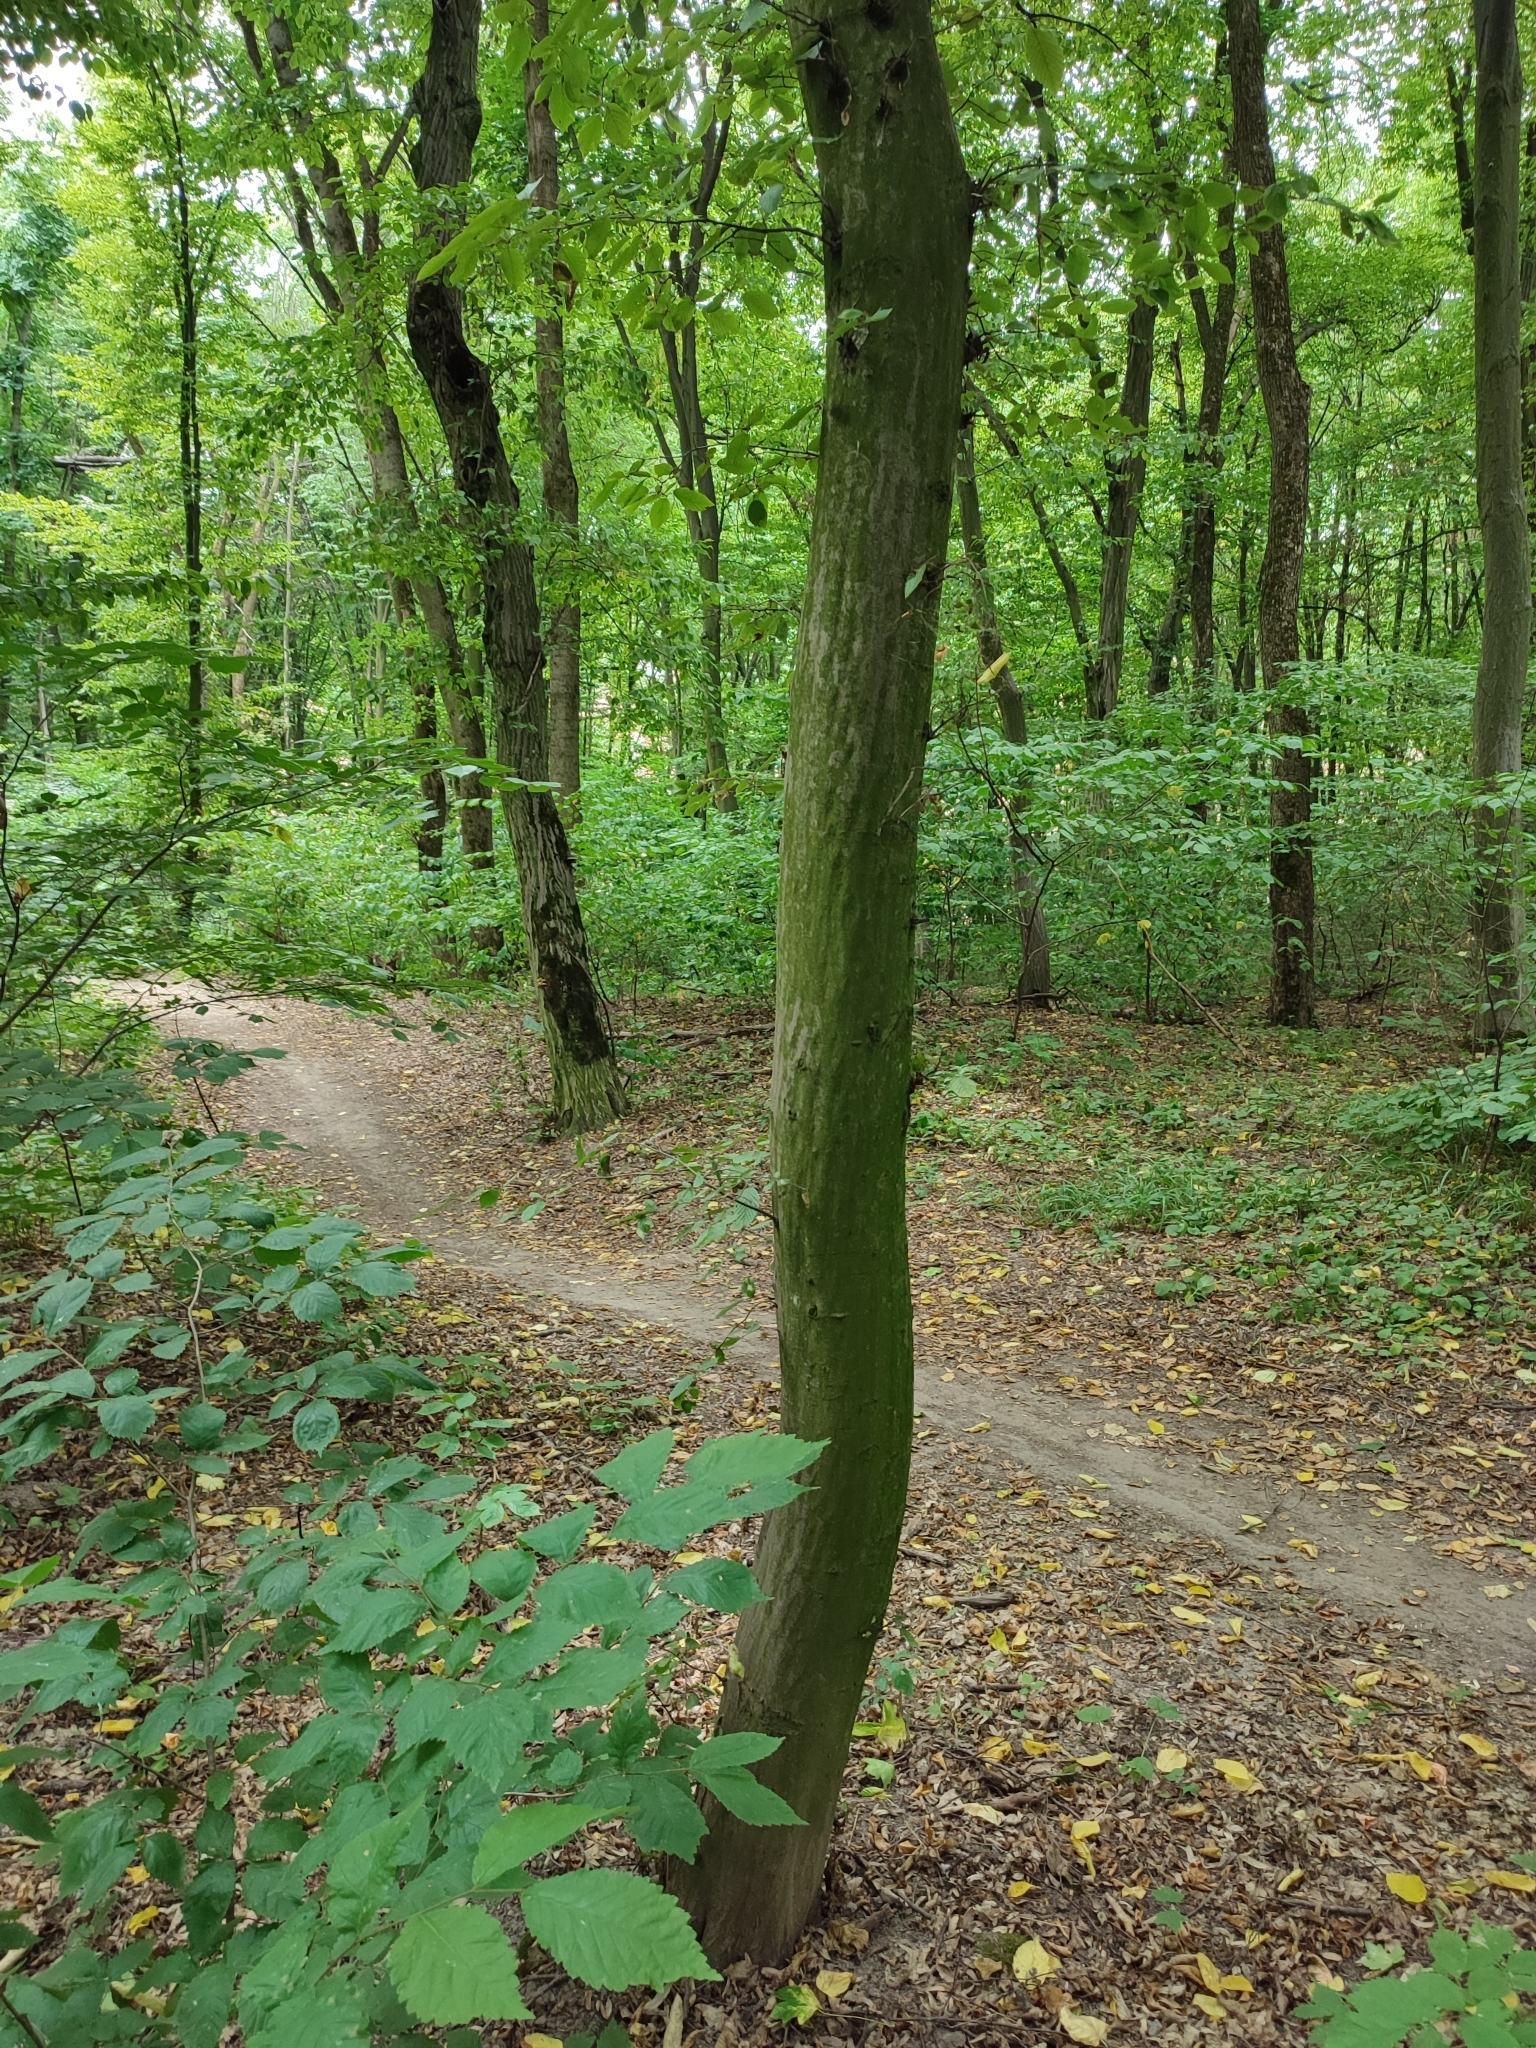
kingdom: Plantae
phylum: Tracheophyta
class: Magnoliopsida
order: Fagales
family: Betulaceae
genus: Carpinus
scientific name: Carpinus betulus
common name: Hornbeam
